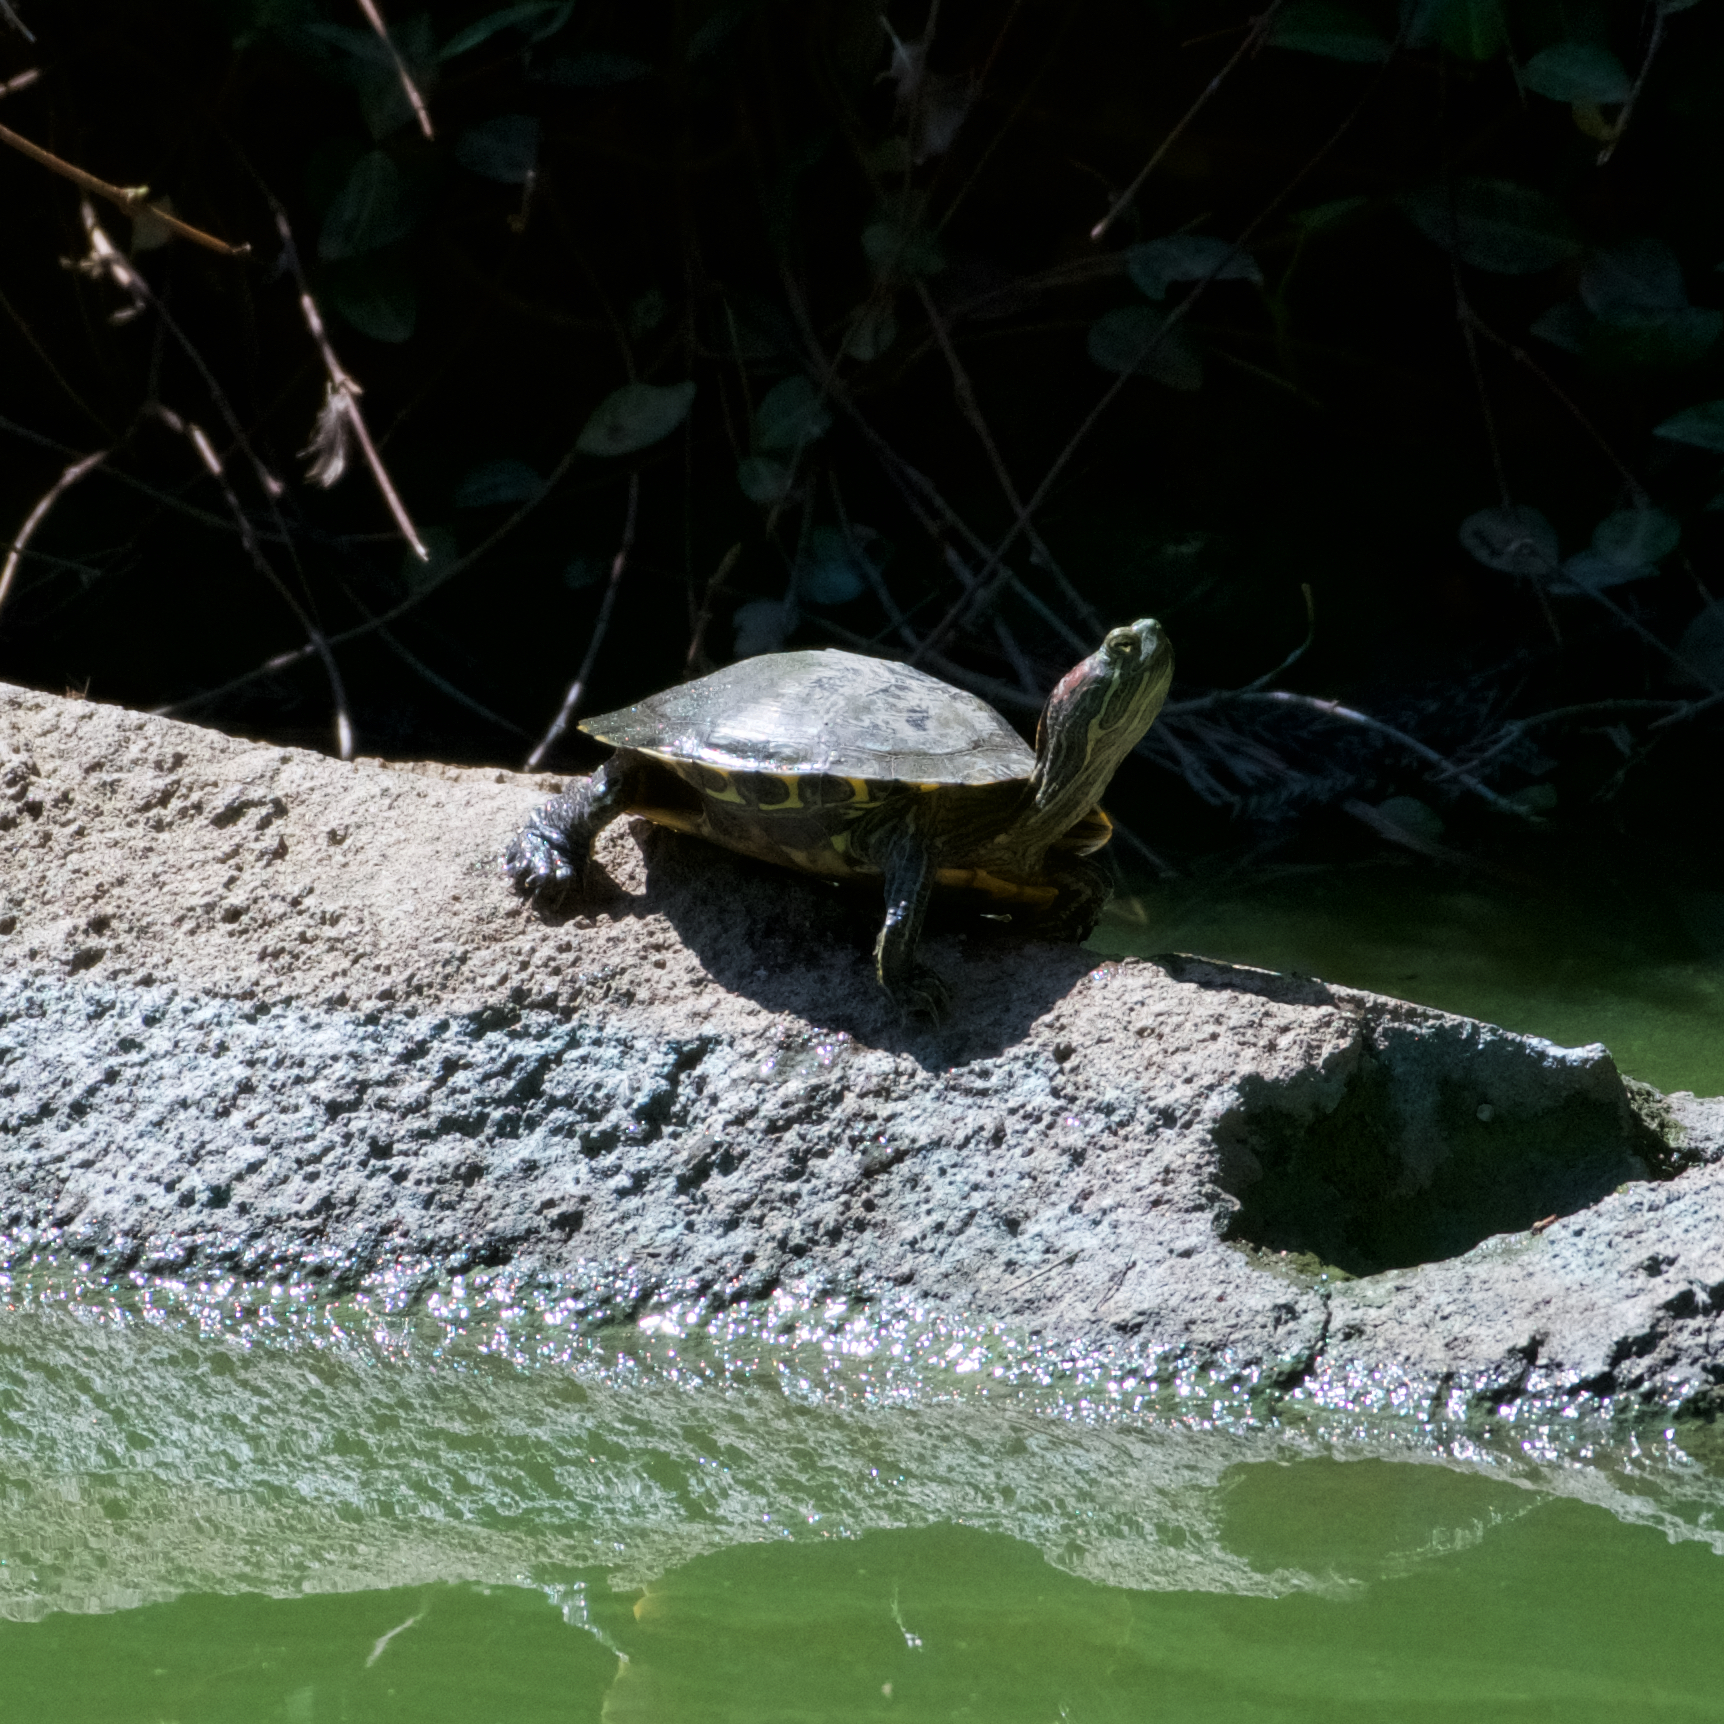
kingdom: Animalia
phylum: Chordata
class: Testudines
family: Emydidae
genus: Trachemys
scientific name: Trachemys scripta
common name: Slider
